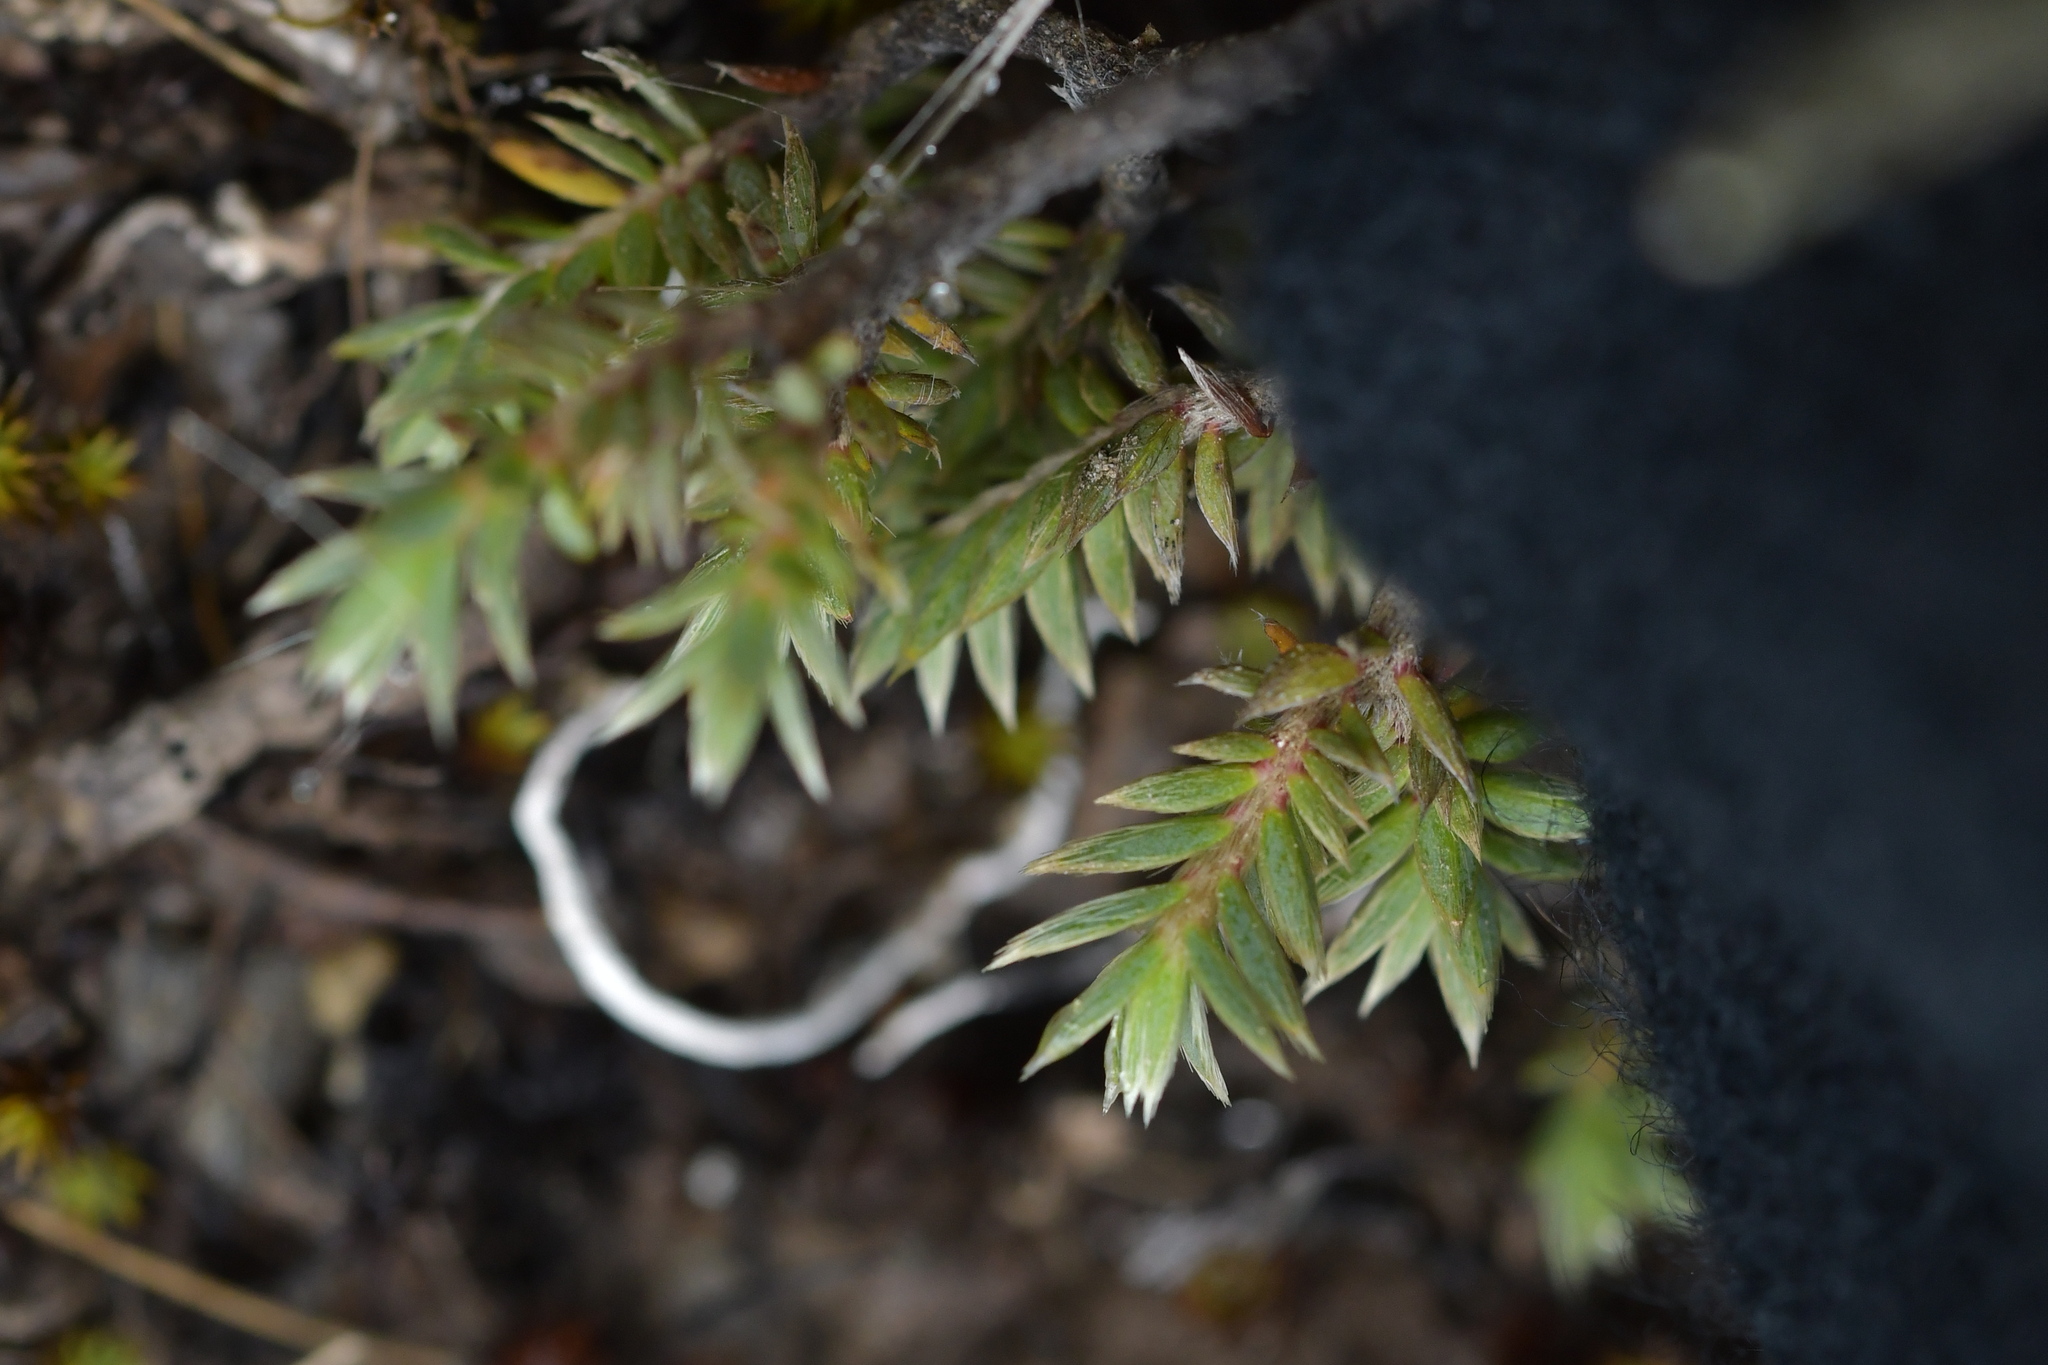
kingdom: Plantae
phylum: Tracheophyta
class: Magnoliopsida
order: Malvales
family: Thymelaeaceae
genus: Pimelea
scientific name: Pimelea oreophila
